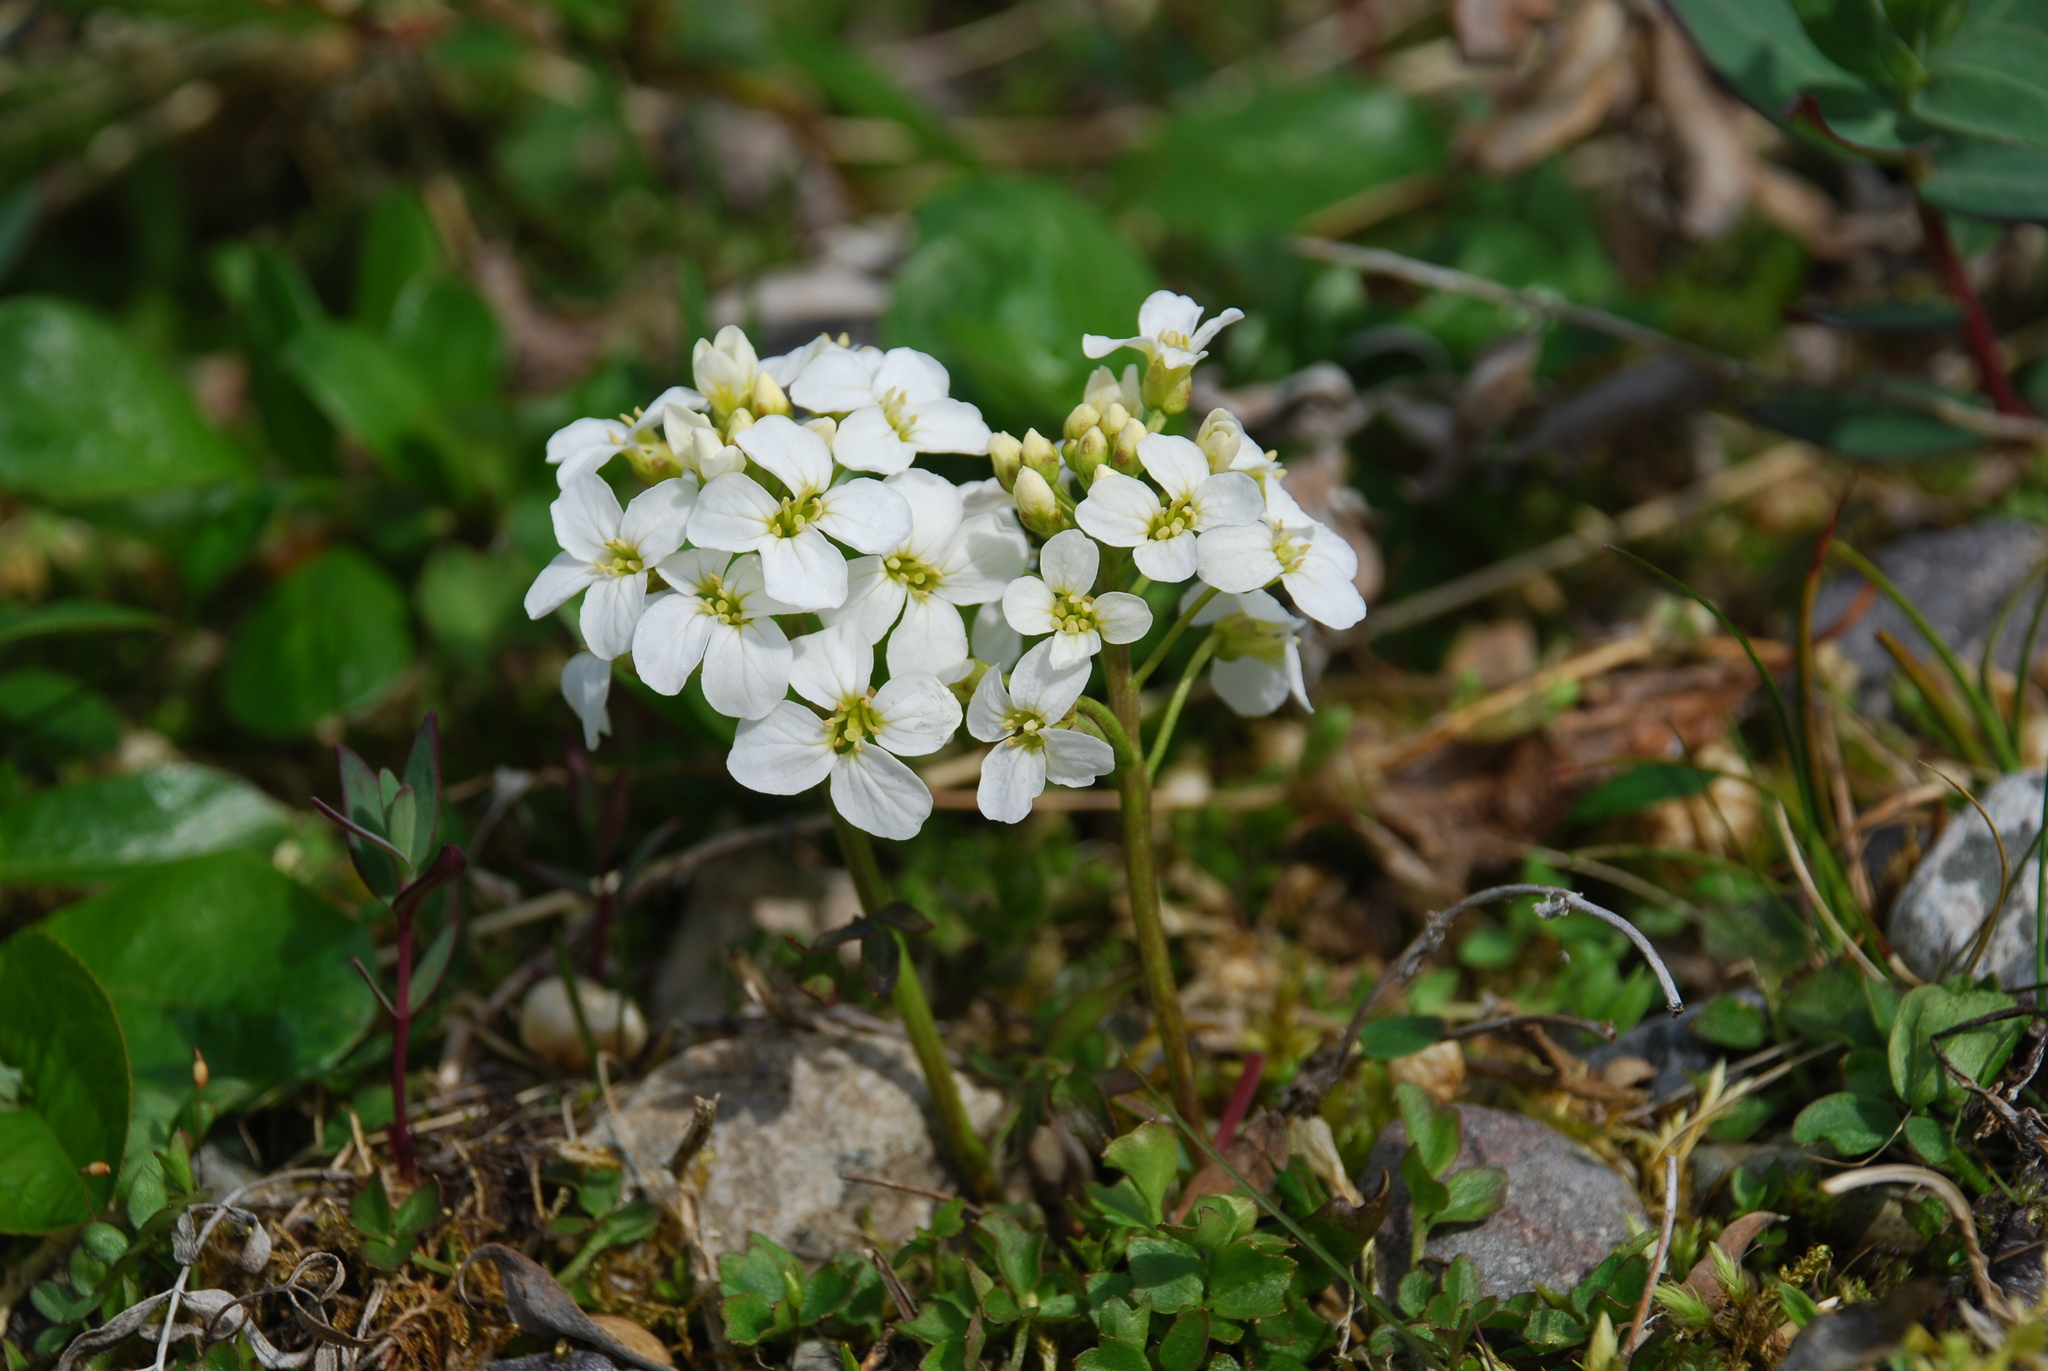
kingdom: Plantae
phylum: Tracheophyta
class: Magnoliopsida
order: Brassicales
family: Brassicaceae
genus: Cardamine
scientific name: Cardamine microphylla
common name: Little-leaved bittercress
